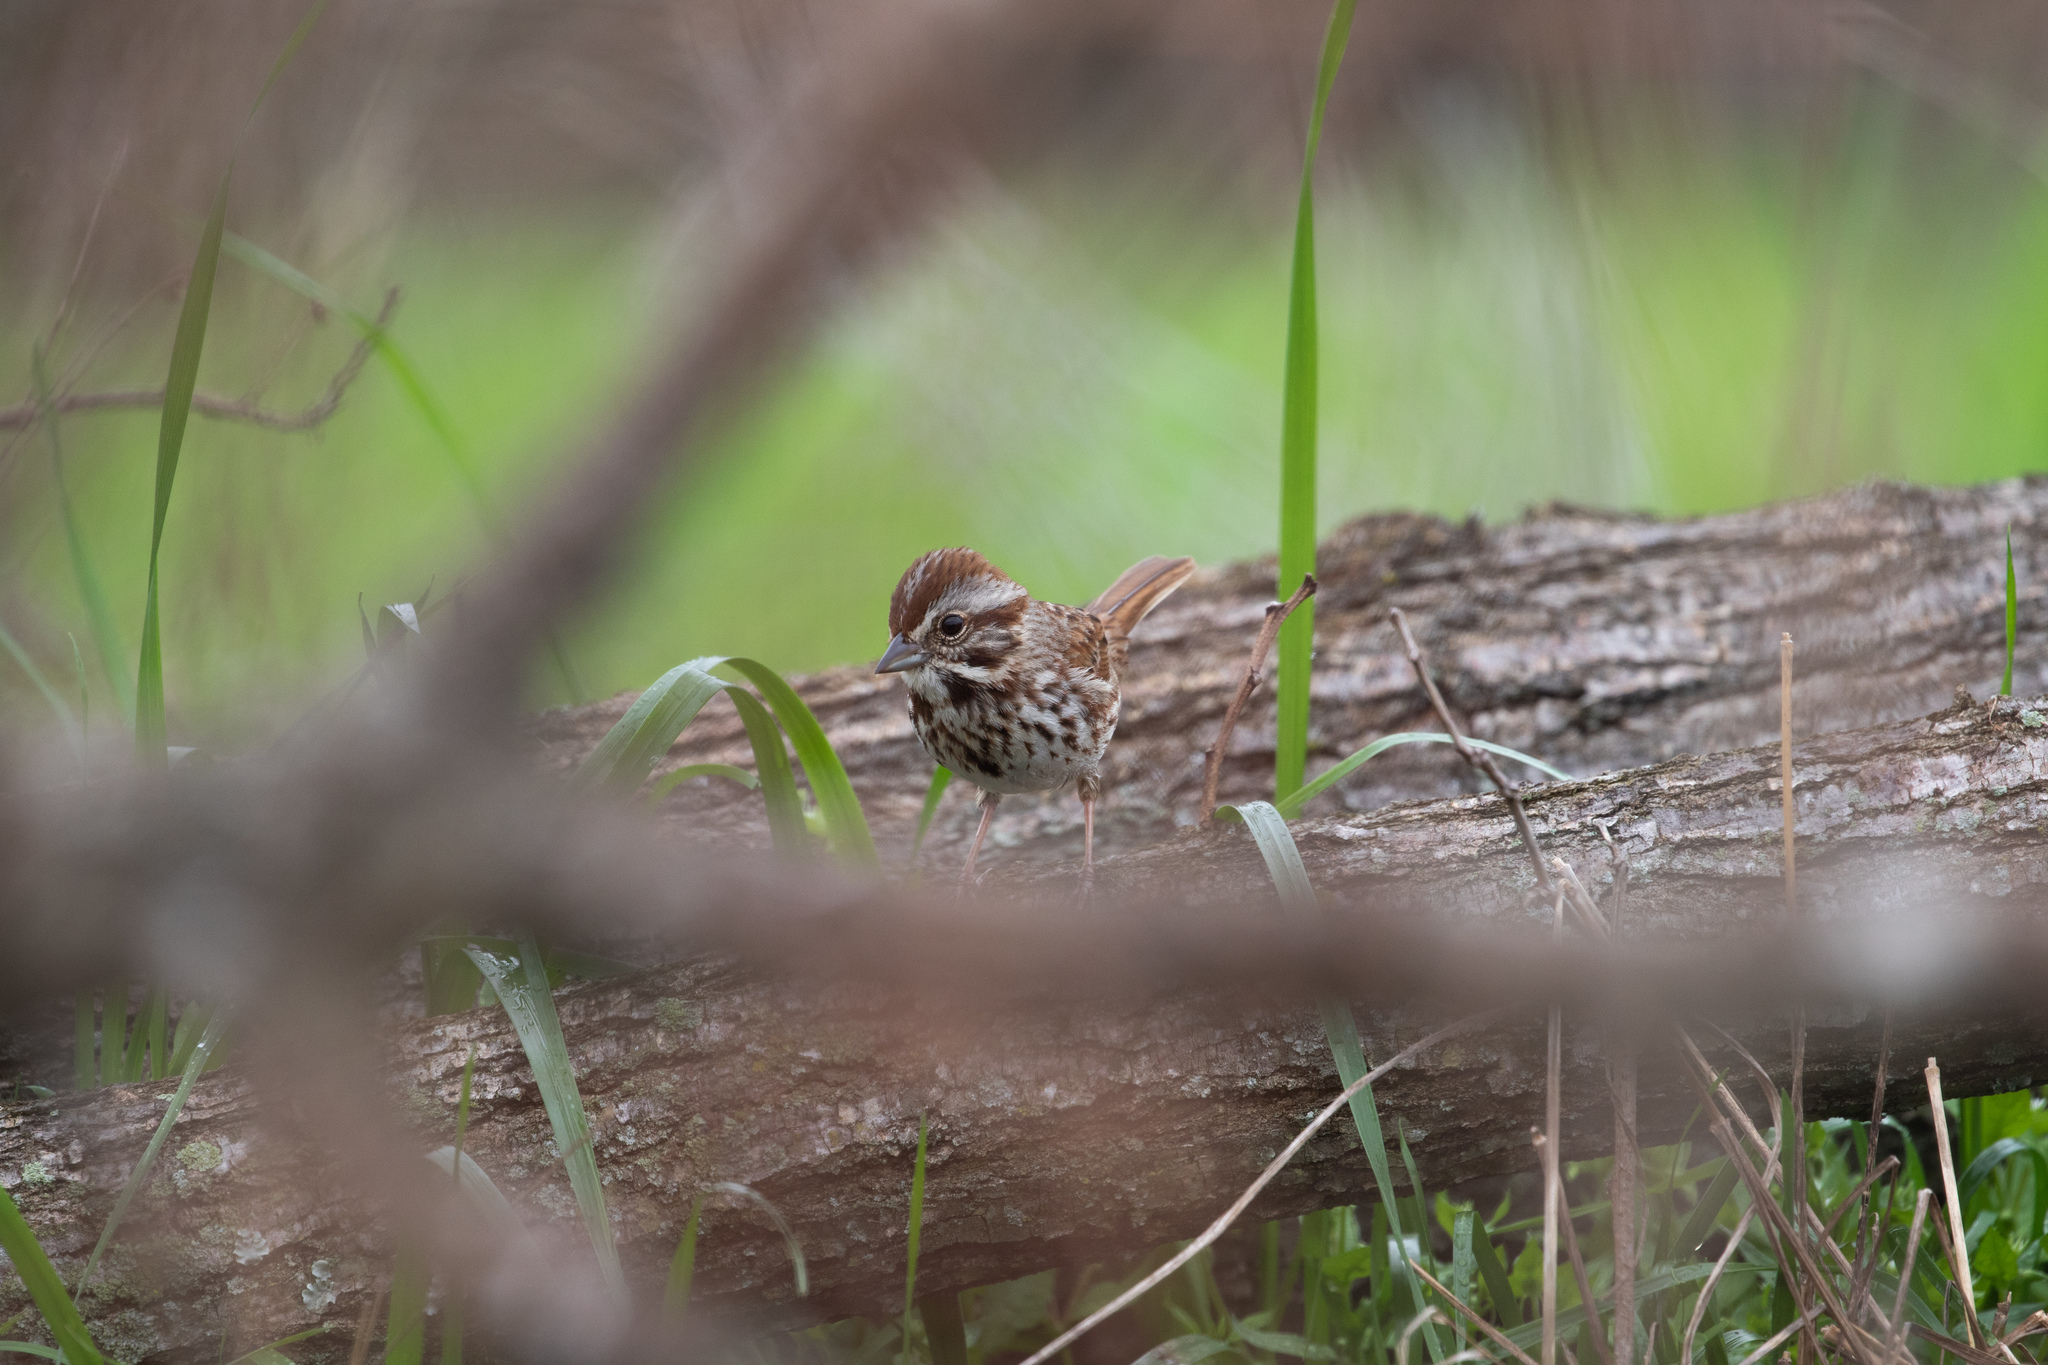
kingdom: Animalia
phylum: Chordata
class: Aves
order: Passeriformes
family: Passerellidae
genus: Melospiza
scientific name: Melospiza melodia
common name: Song sparrow
